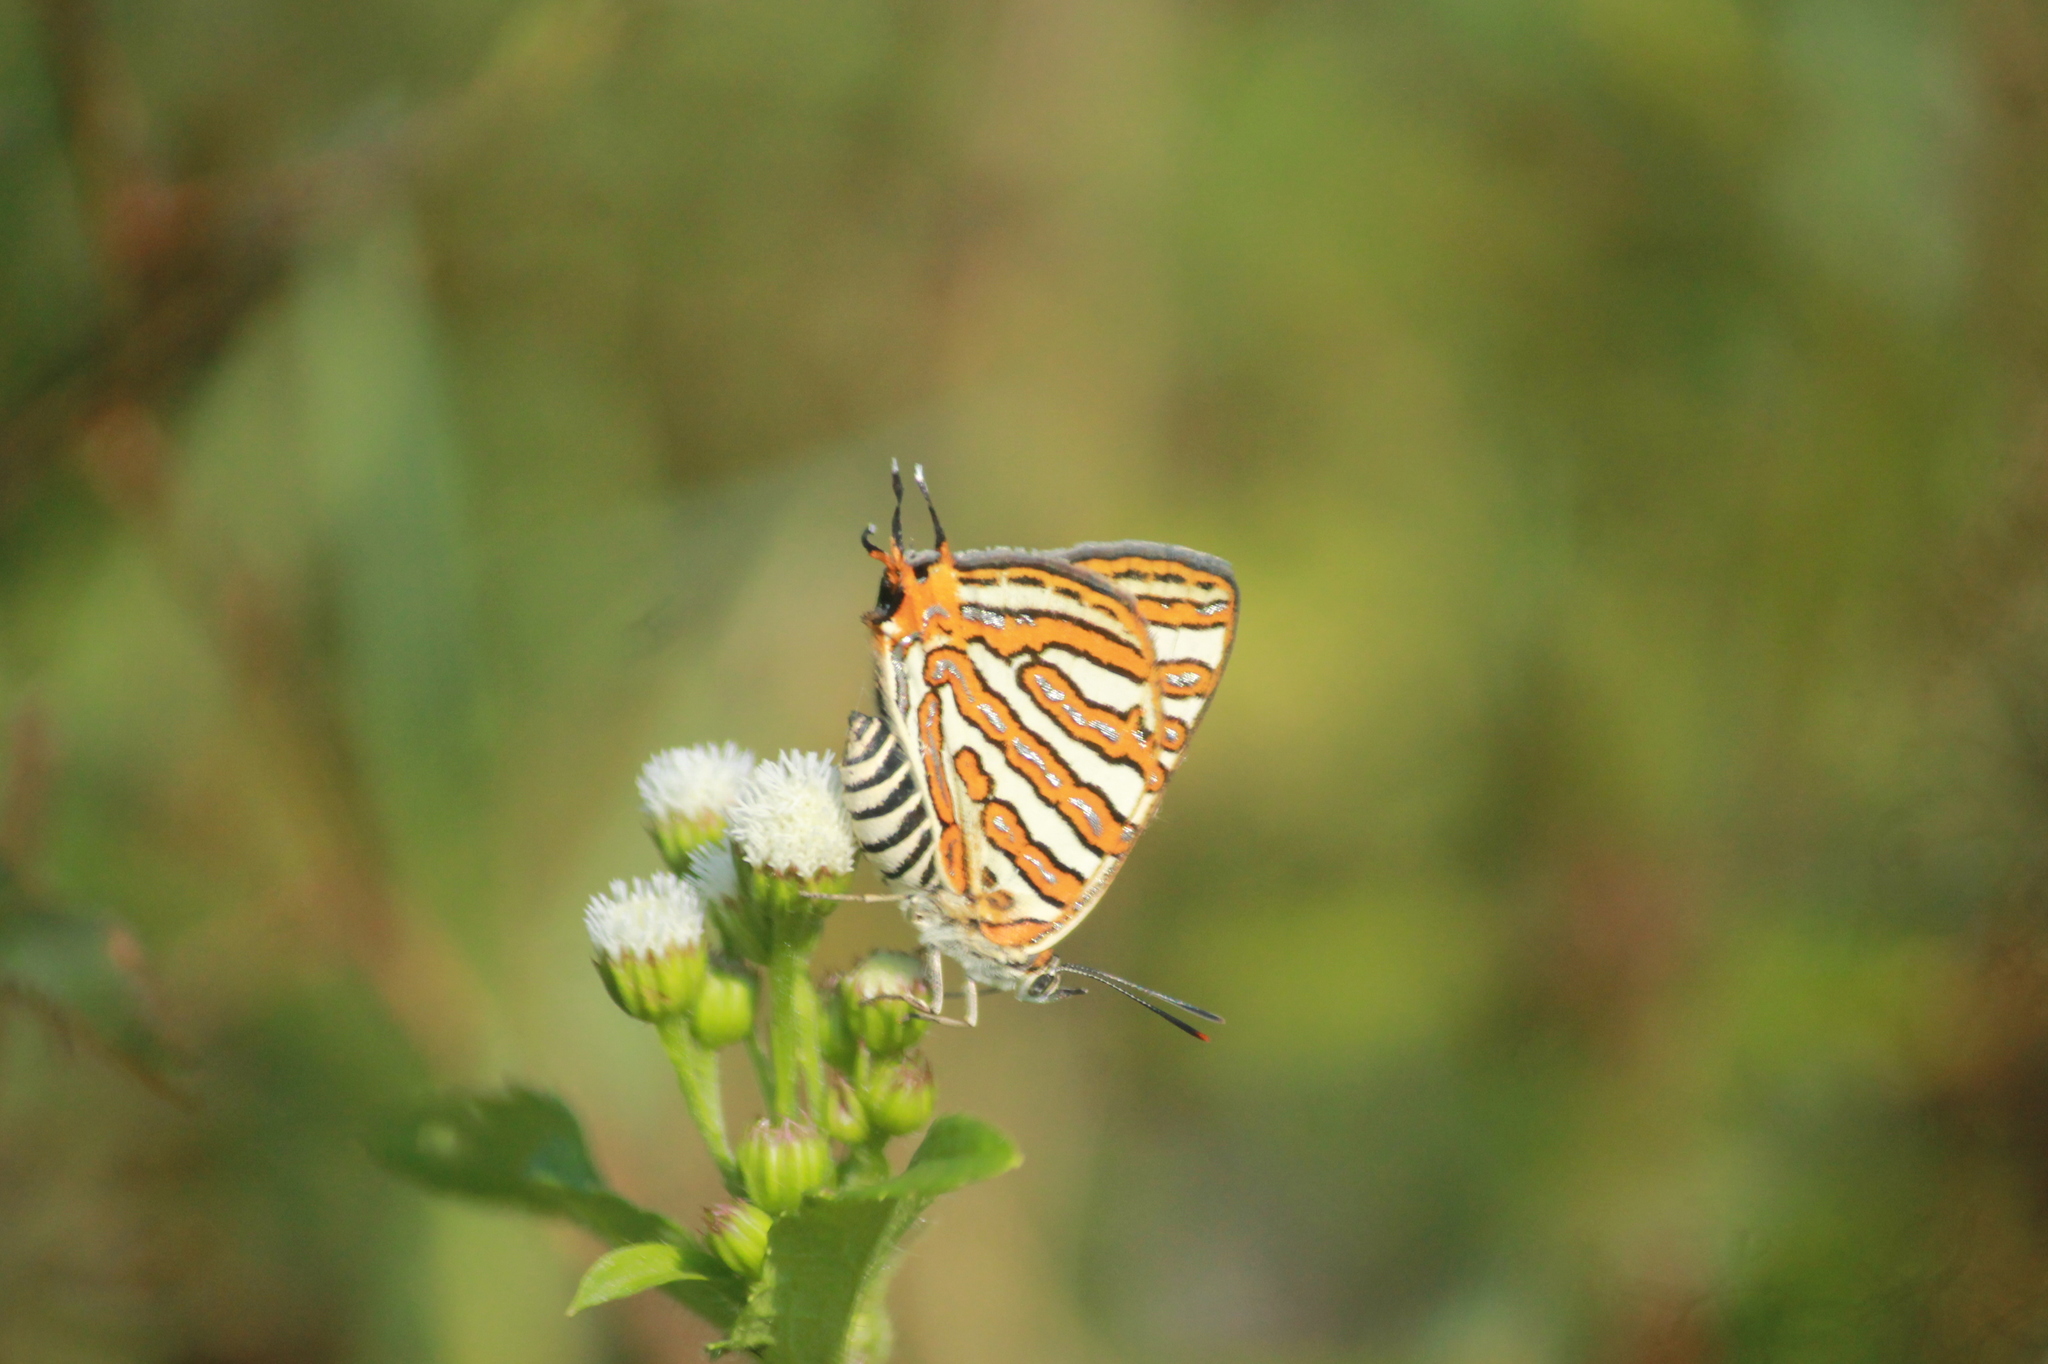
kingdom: Animalia
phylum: Arthropoda
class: Insecta
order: Lepidoptera
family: Lycaenidae
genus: Cigaritis
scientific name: Cigaritis vulcanus
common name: Common silverline
